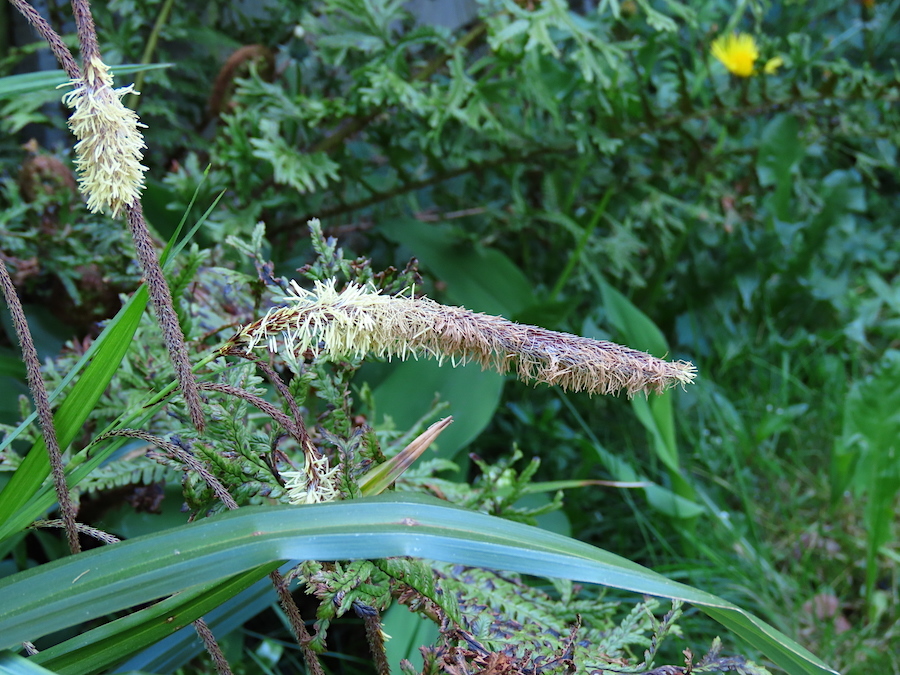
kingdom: Plantae
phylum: Tracheophyta
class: Liliopsida
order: Poales
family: Cyperaceae
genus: Carex
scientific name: Carex pendula
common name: Pendulous sedge
